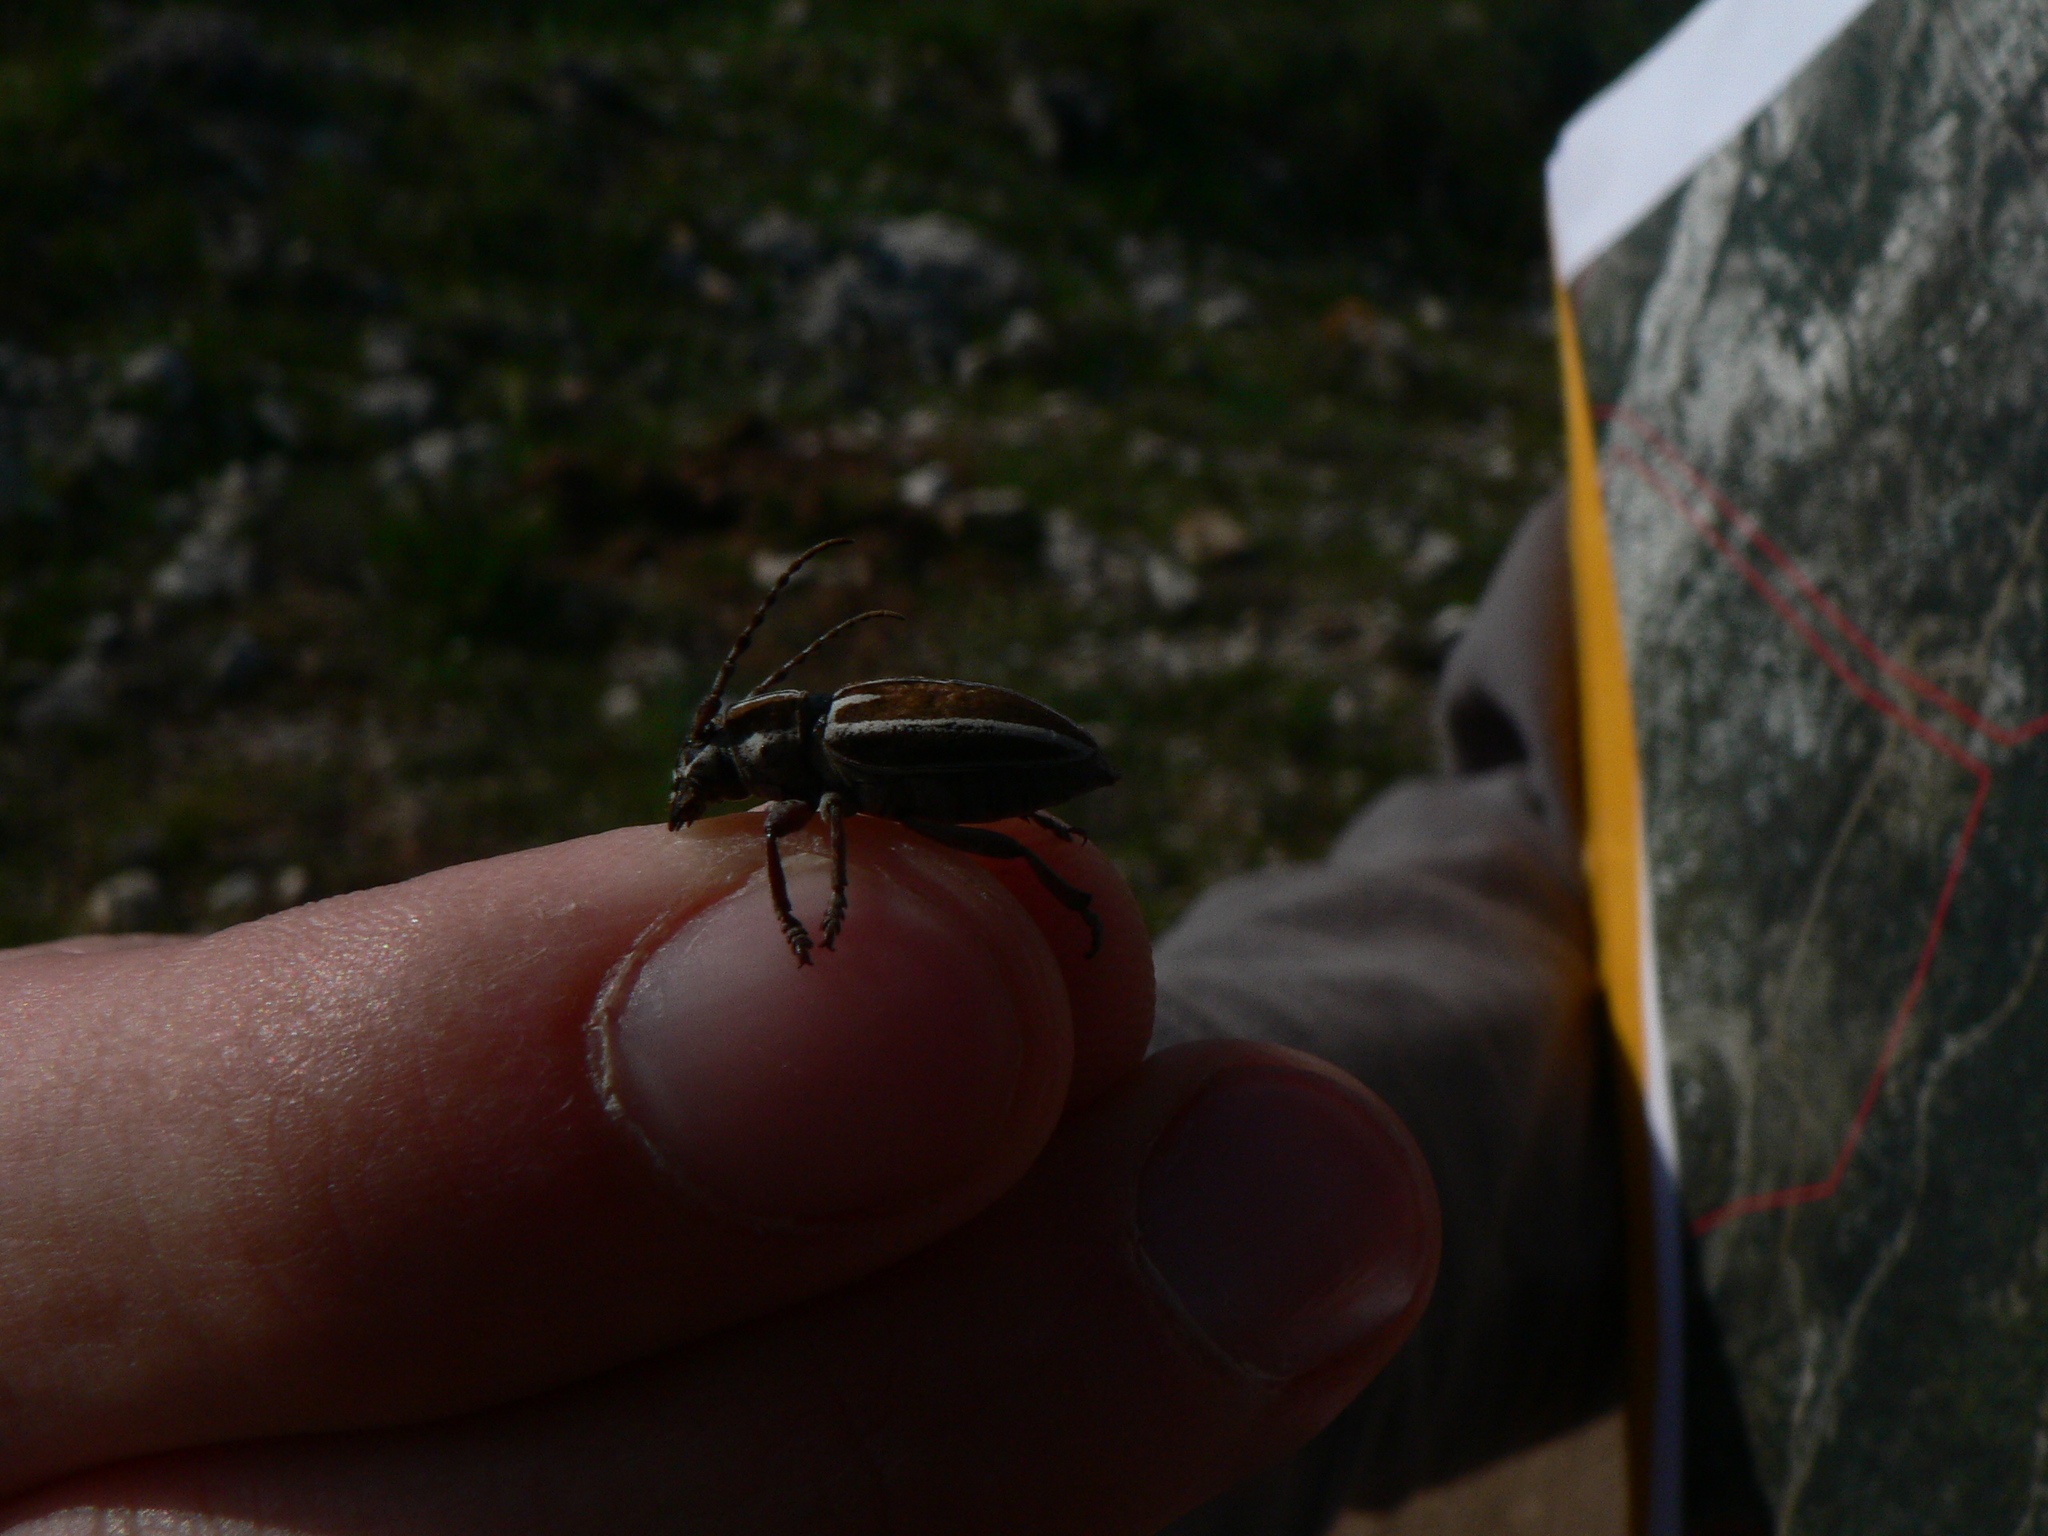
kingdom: Animalia
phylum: Arthropoda
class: Insecta
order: Coleoptera
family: Cerambycidae
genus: Iberodorcadion
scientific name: Iberodorcadion molitor
